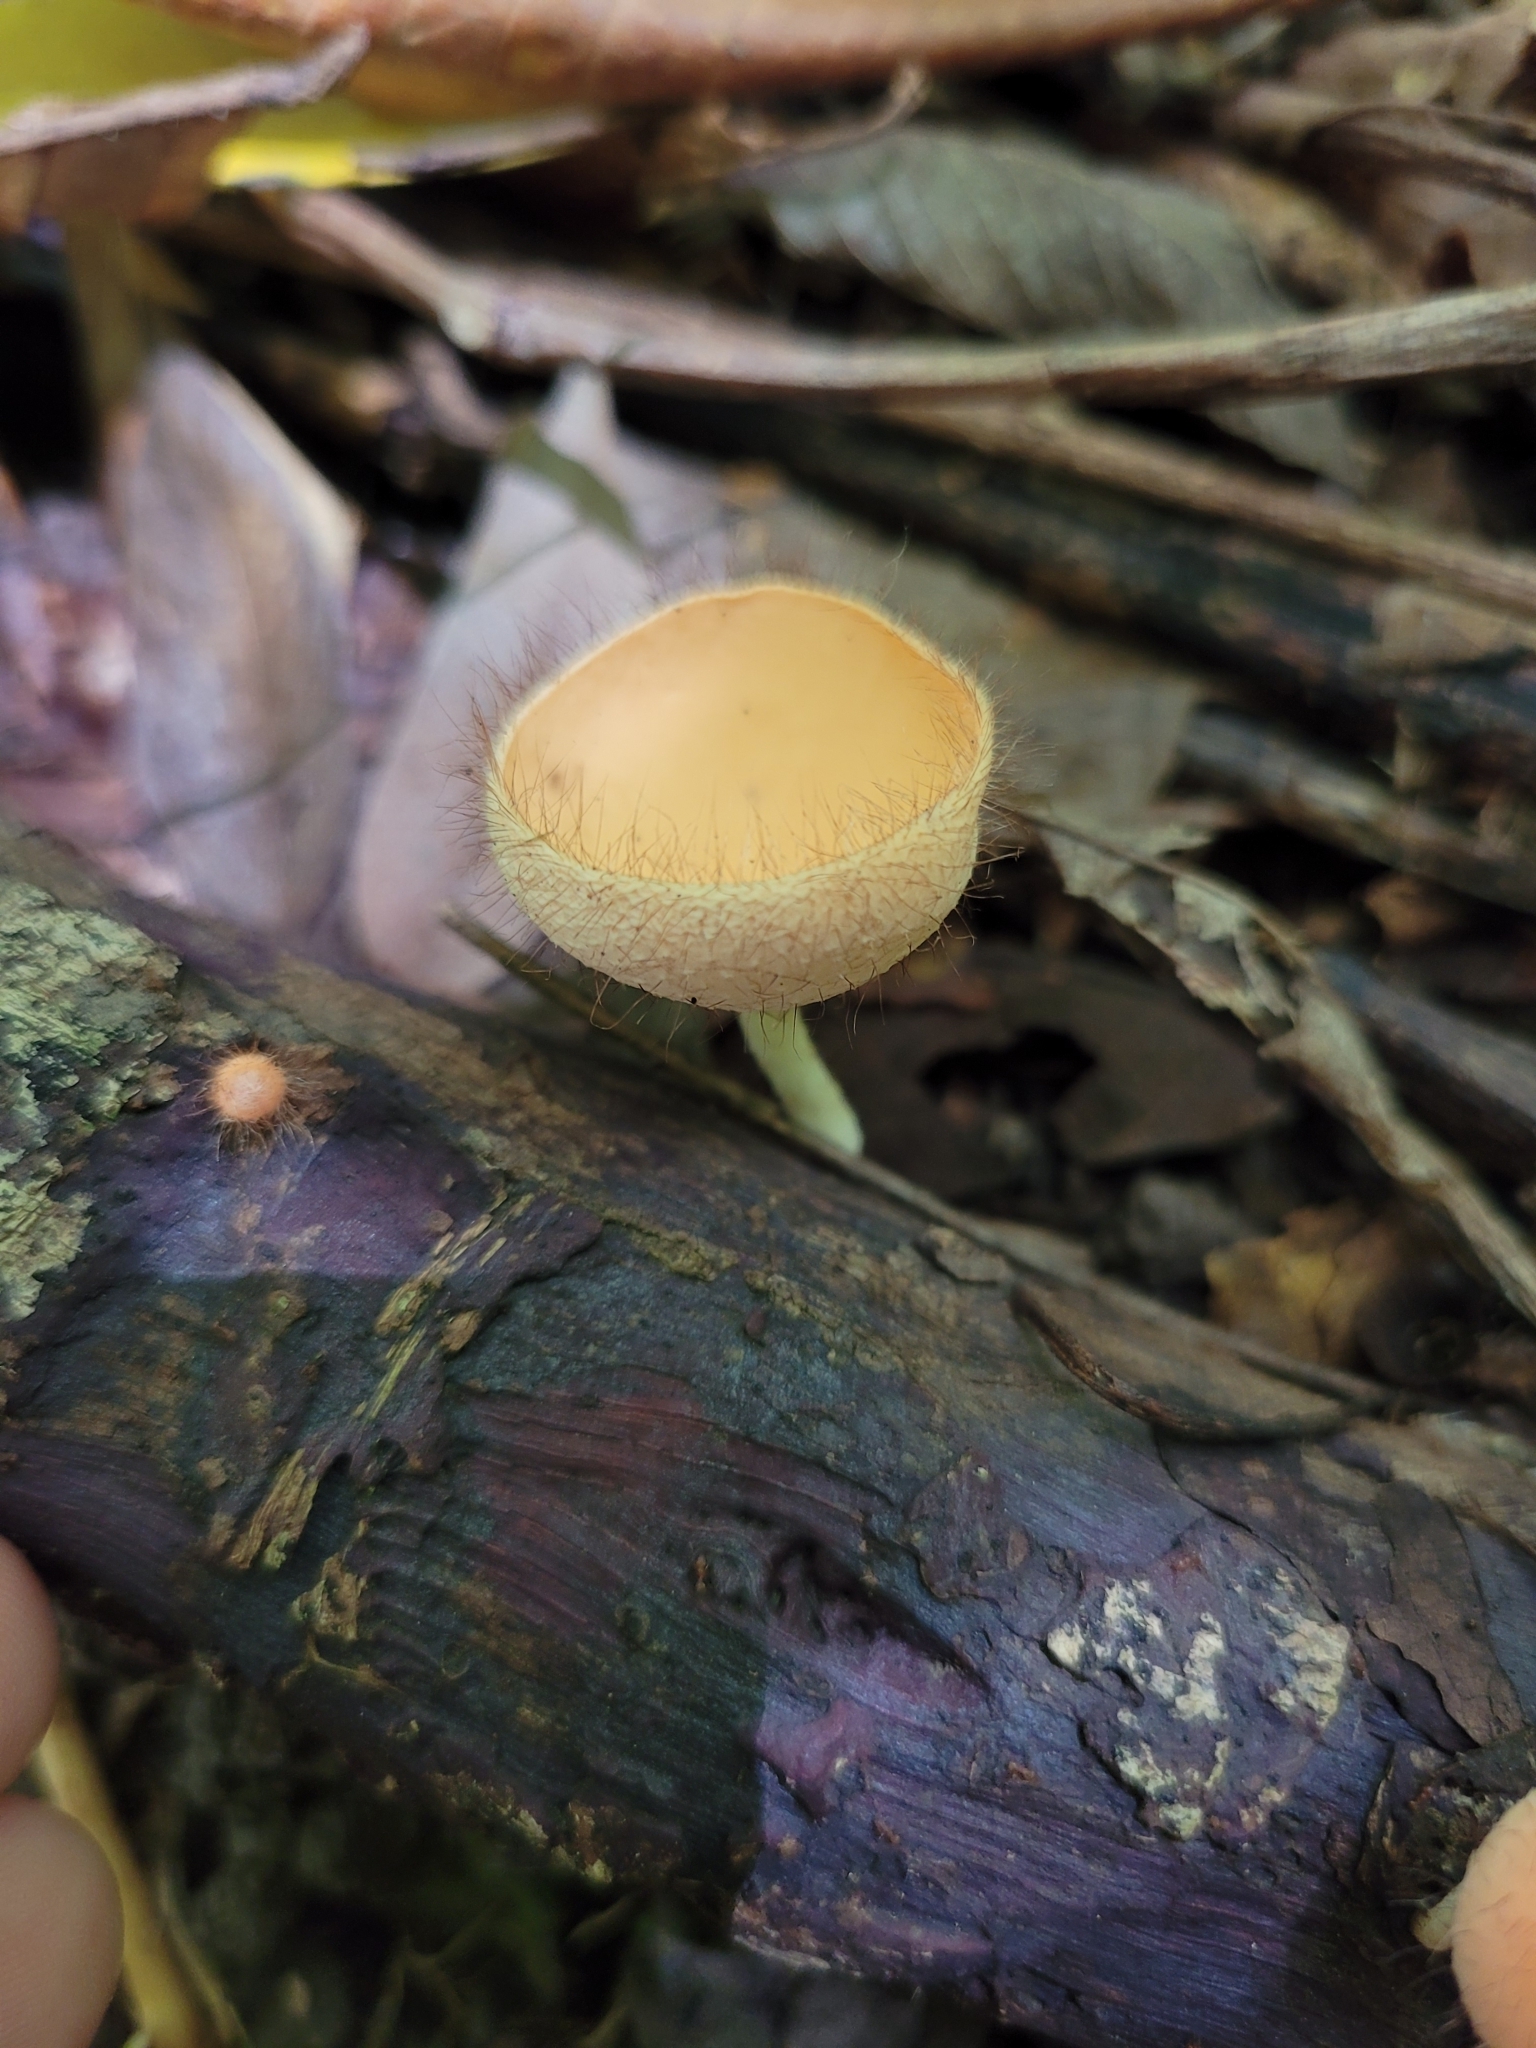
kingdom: Fungi
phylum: Ascomycota
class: Pezizomycetes
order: Pezizales
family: Sarcoscyphaceae
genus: Cookeina
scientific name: Cookeina tricholoma
